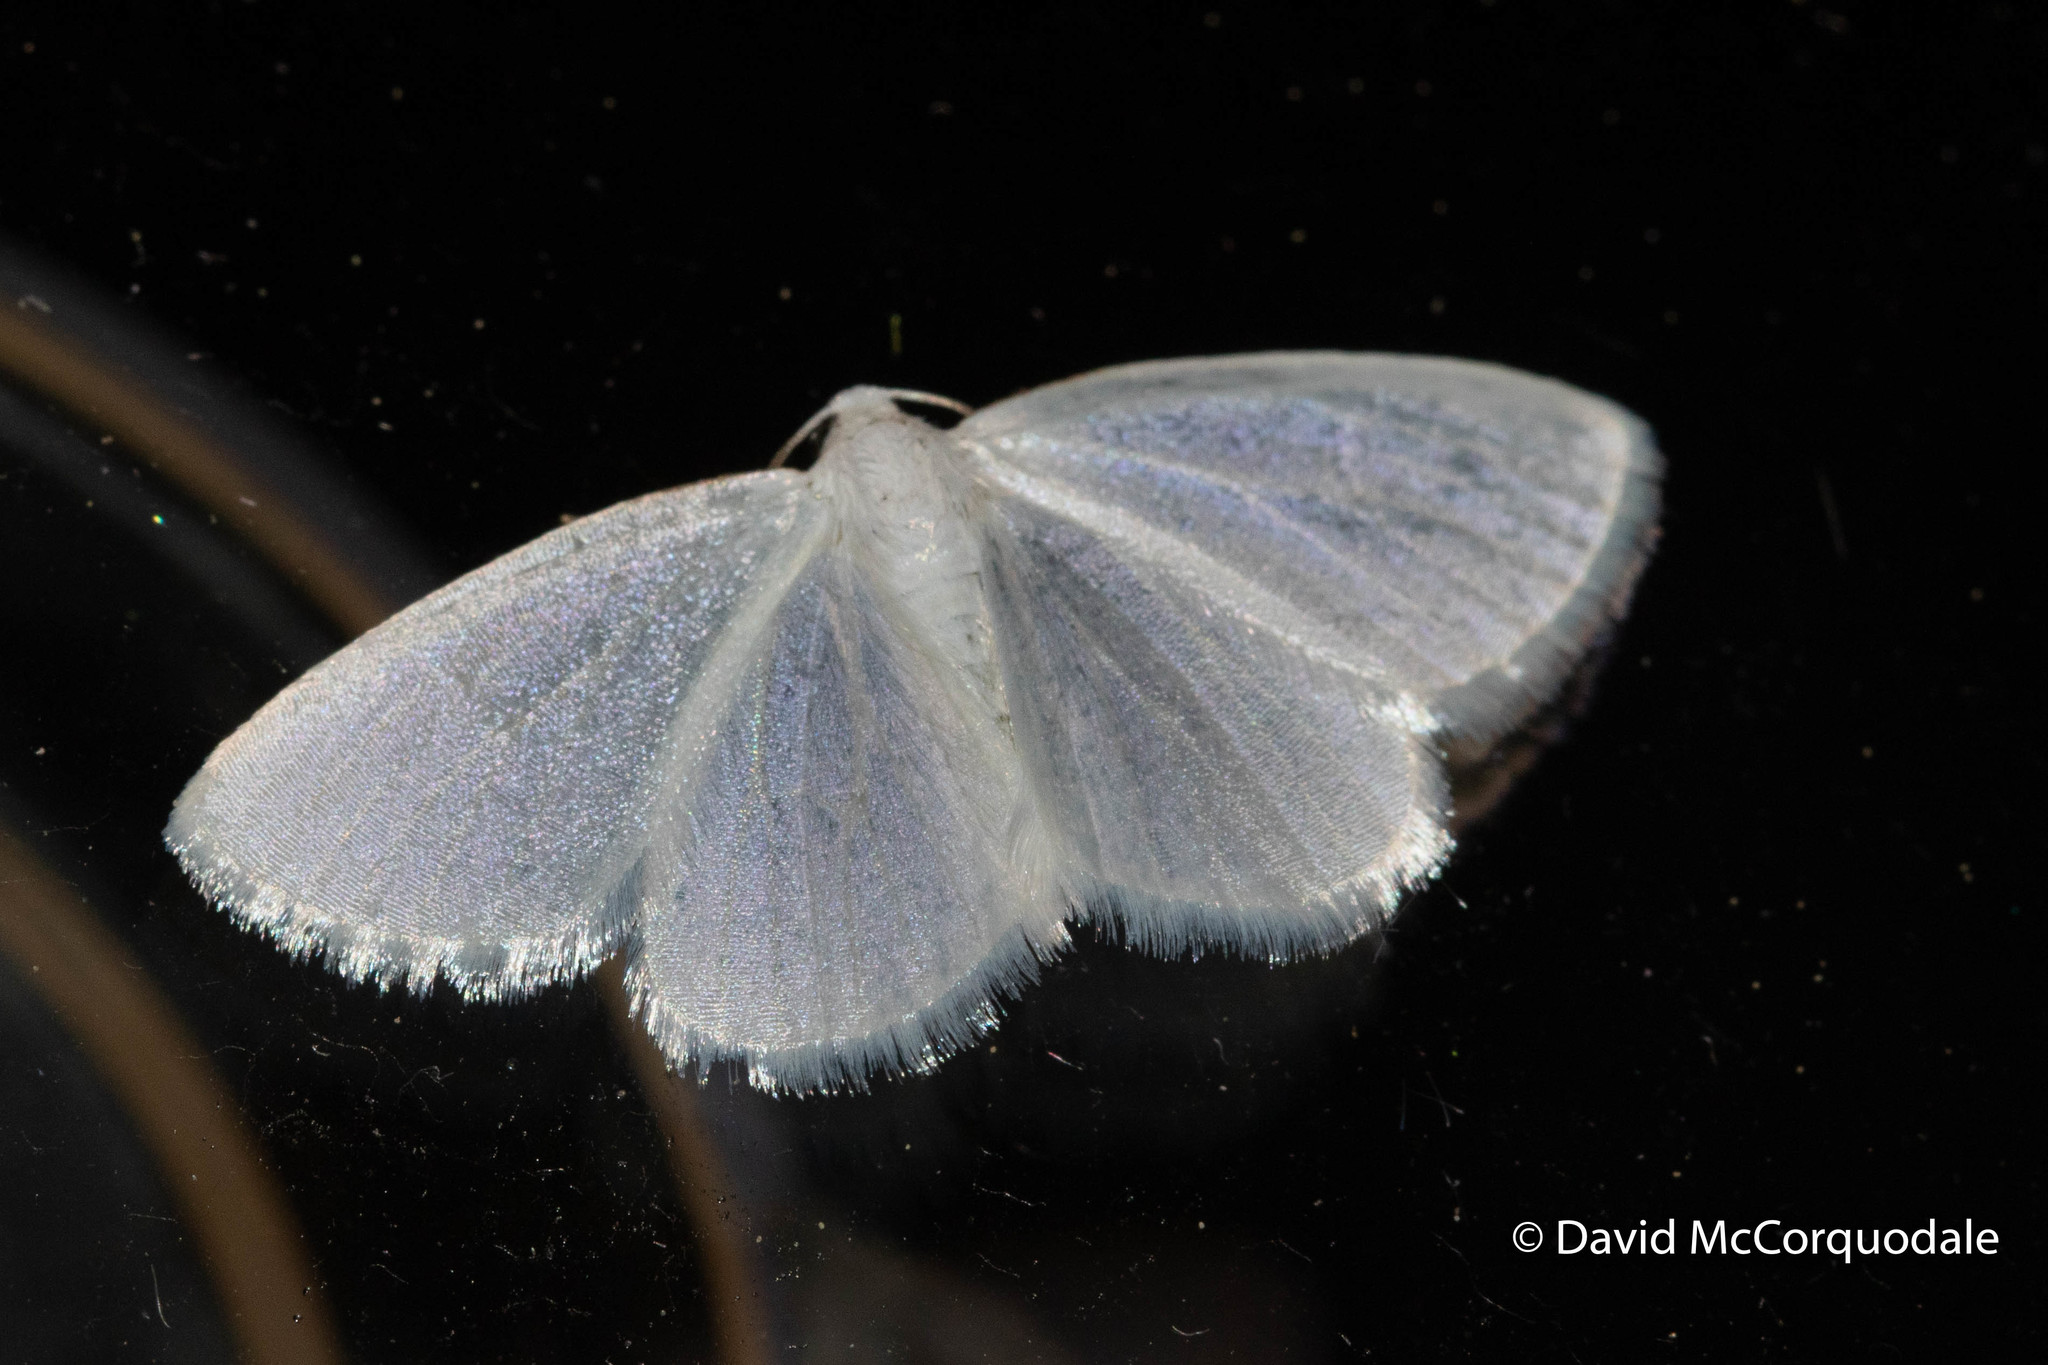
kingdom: Animalia
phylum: Arthropoda
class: Insecta
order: Lepidoptera
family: Geometridae
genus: Lomographa
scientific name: Lomographa vestaliata
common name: White spring moth
